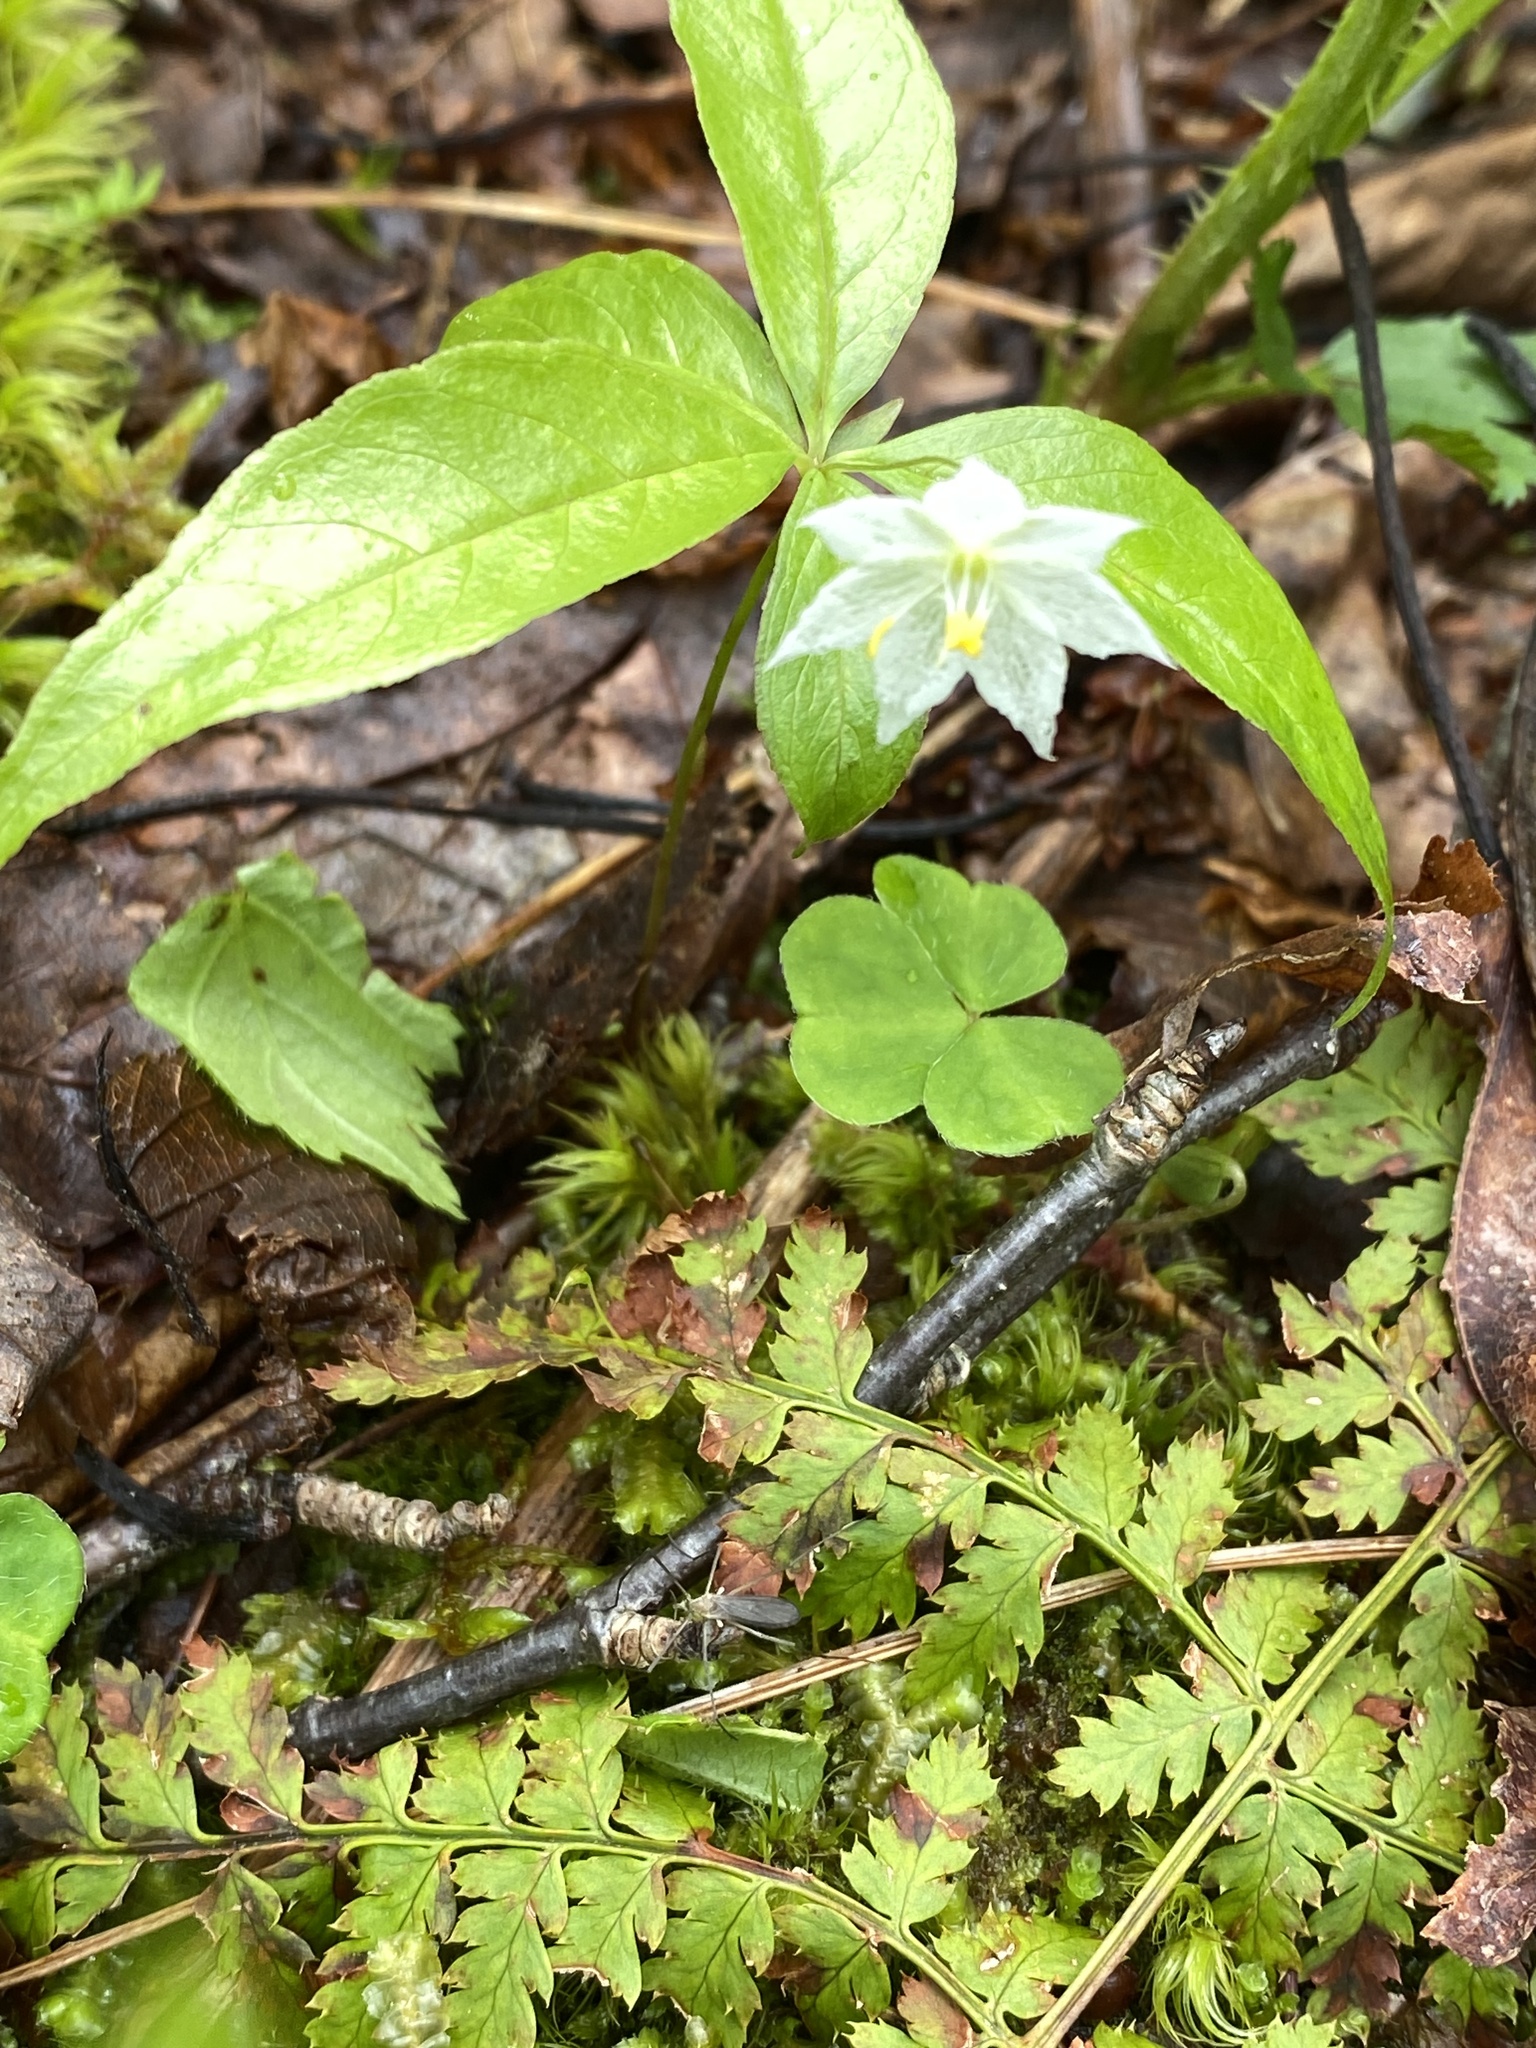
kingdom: Plantae
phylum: Tracheophyta
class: Magnoliopsida
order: Ericales
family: Primulaceae
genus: Lysimachia
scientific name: Lysimachia borealis
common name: American starflower
